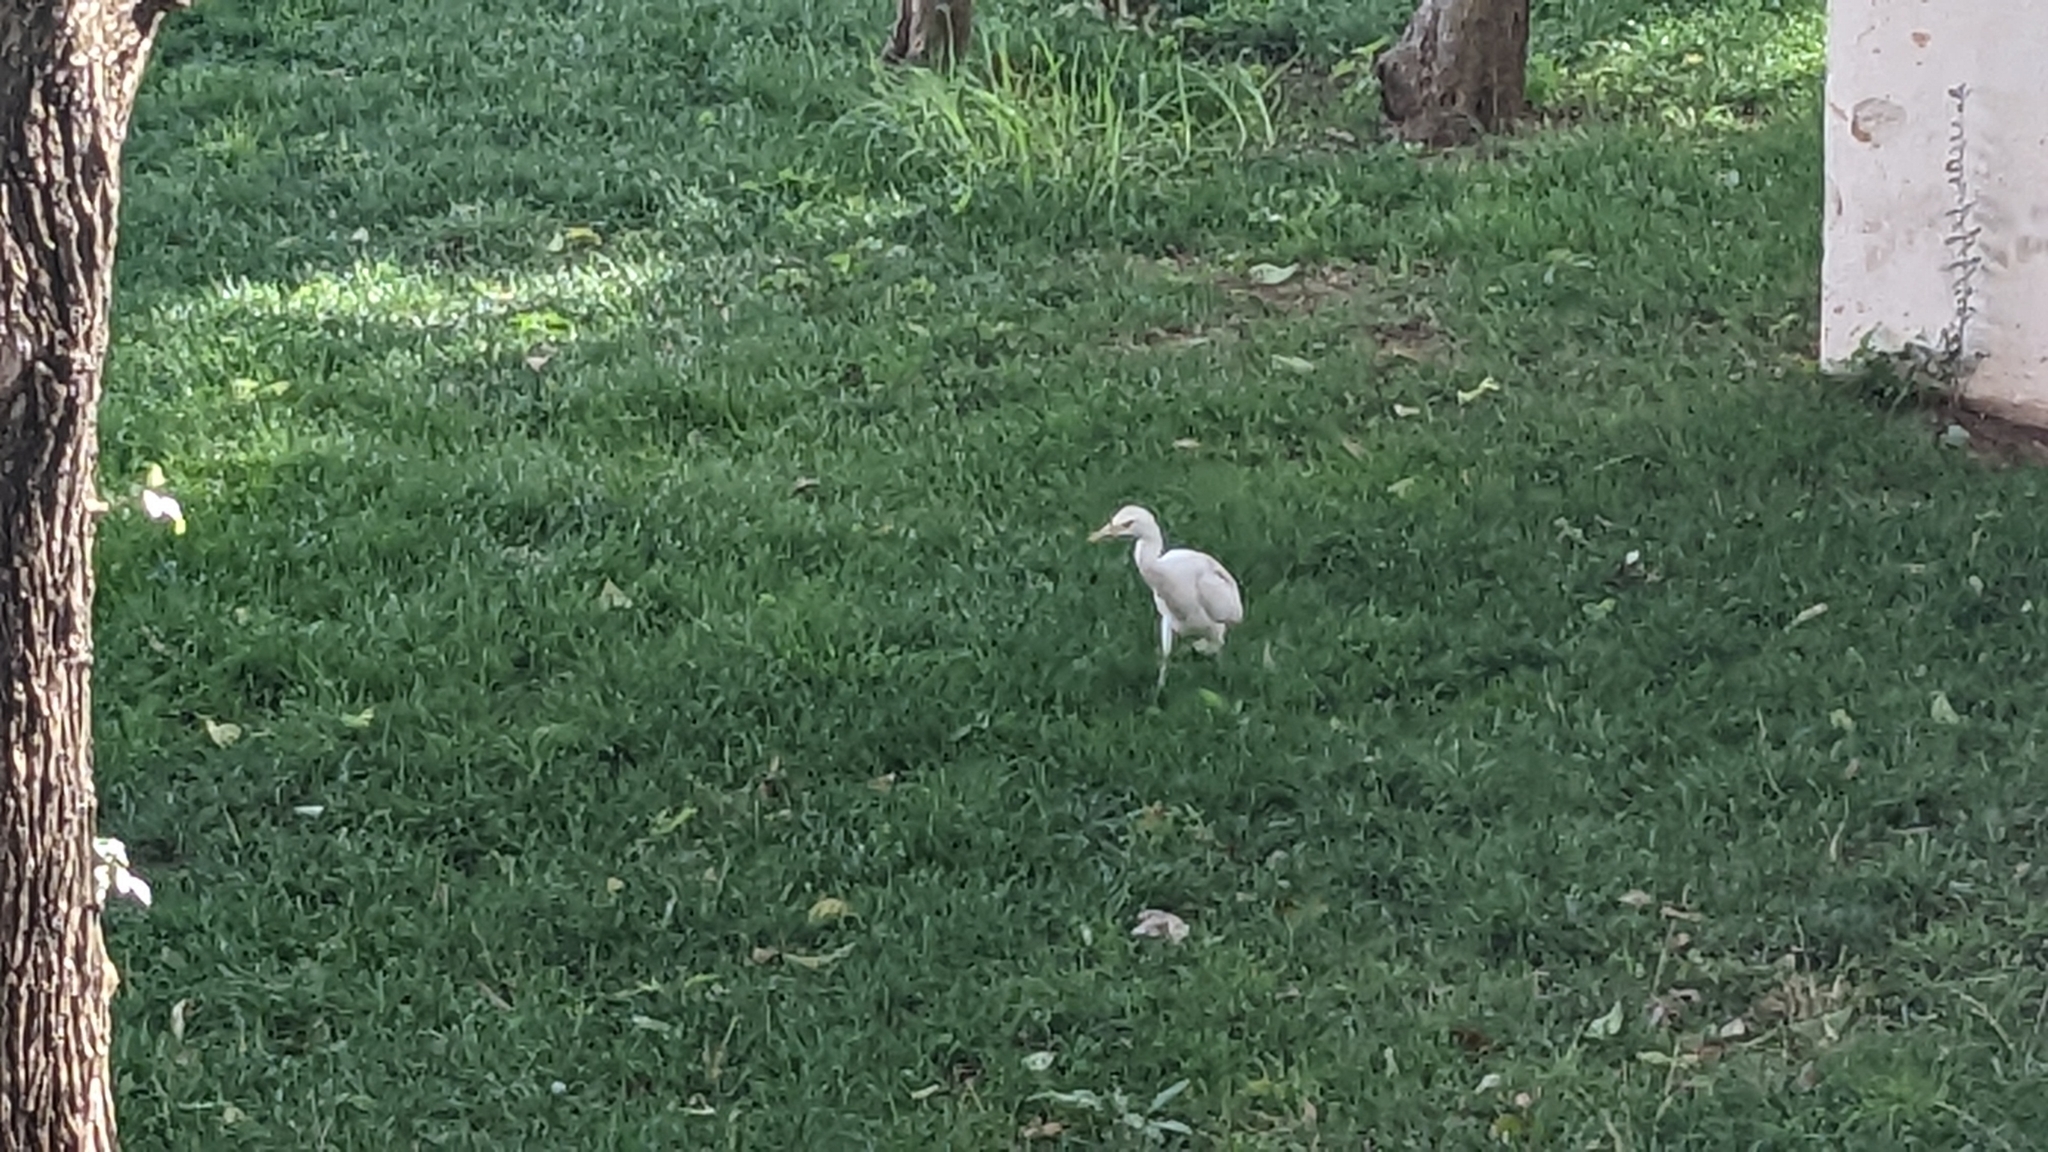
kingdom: Animalia
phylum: Chordata
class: Aves
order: Pelecaniformes
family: Ardeidae
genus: Bubulcus
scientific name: Bubulcus ibis
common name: Cattle egret
